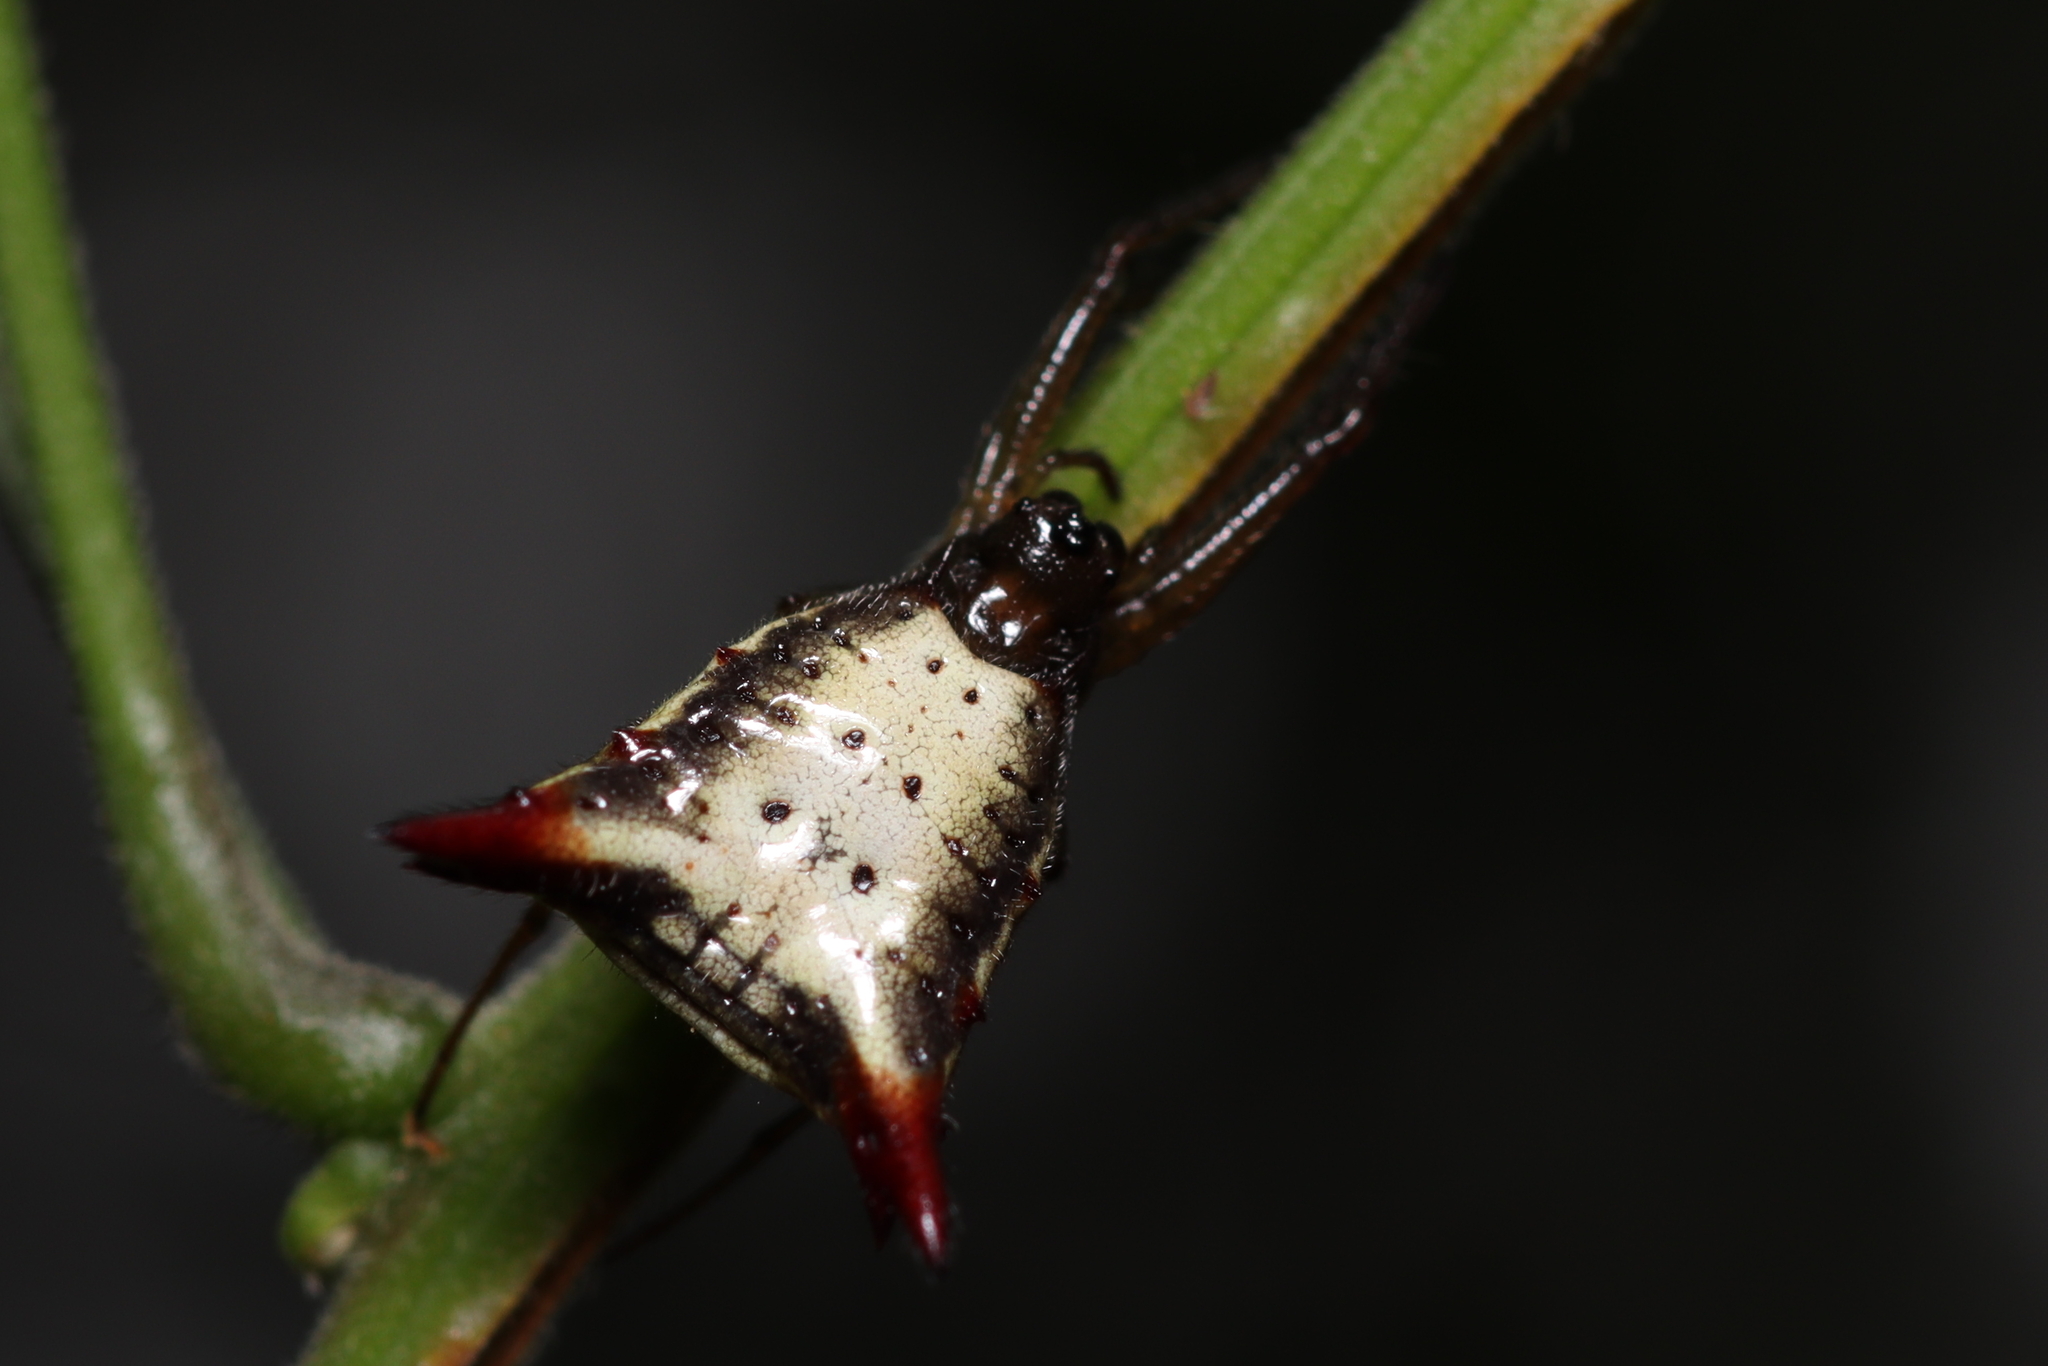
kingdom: Animalia
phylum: Arthropoda
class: Arachnida
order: Araneae
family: Araneidae
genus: Micrathena
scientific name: Micrathena plana
